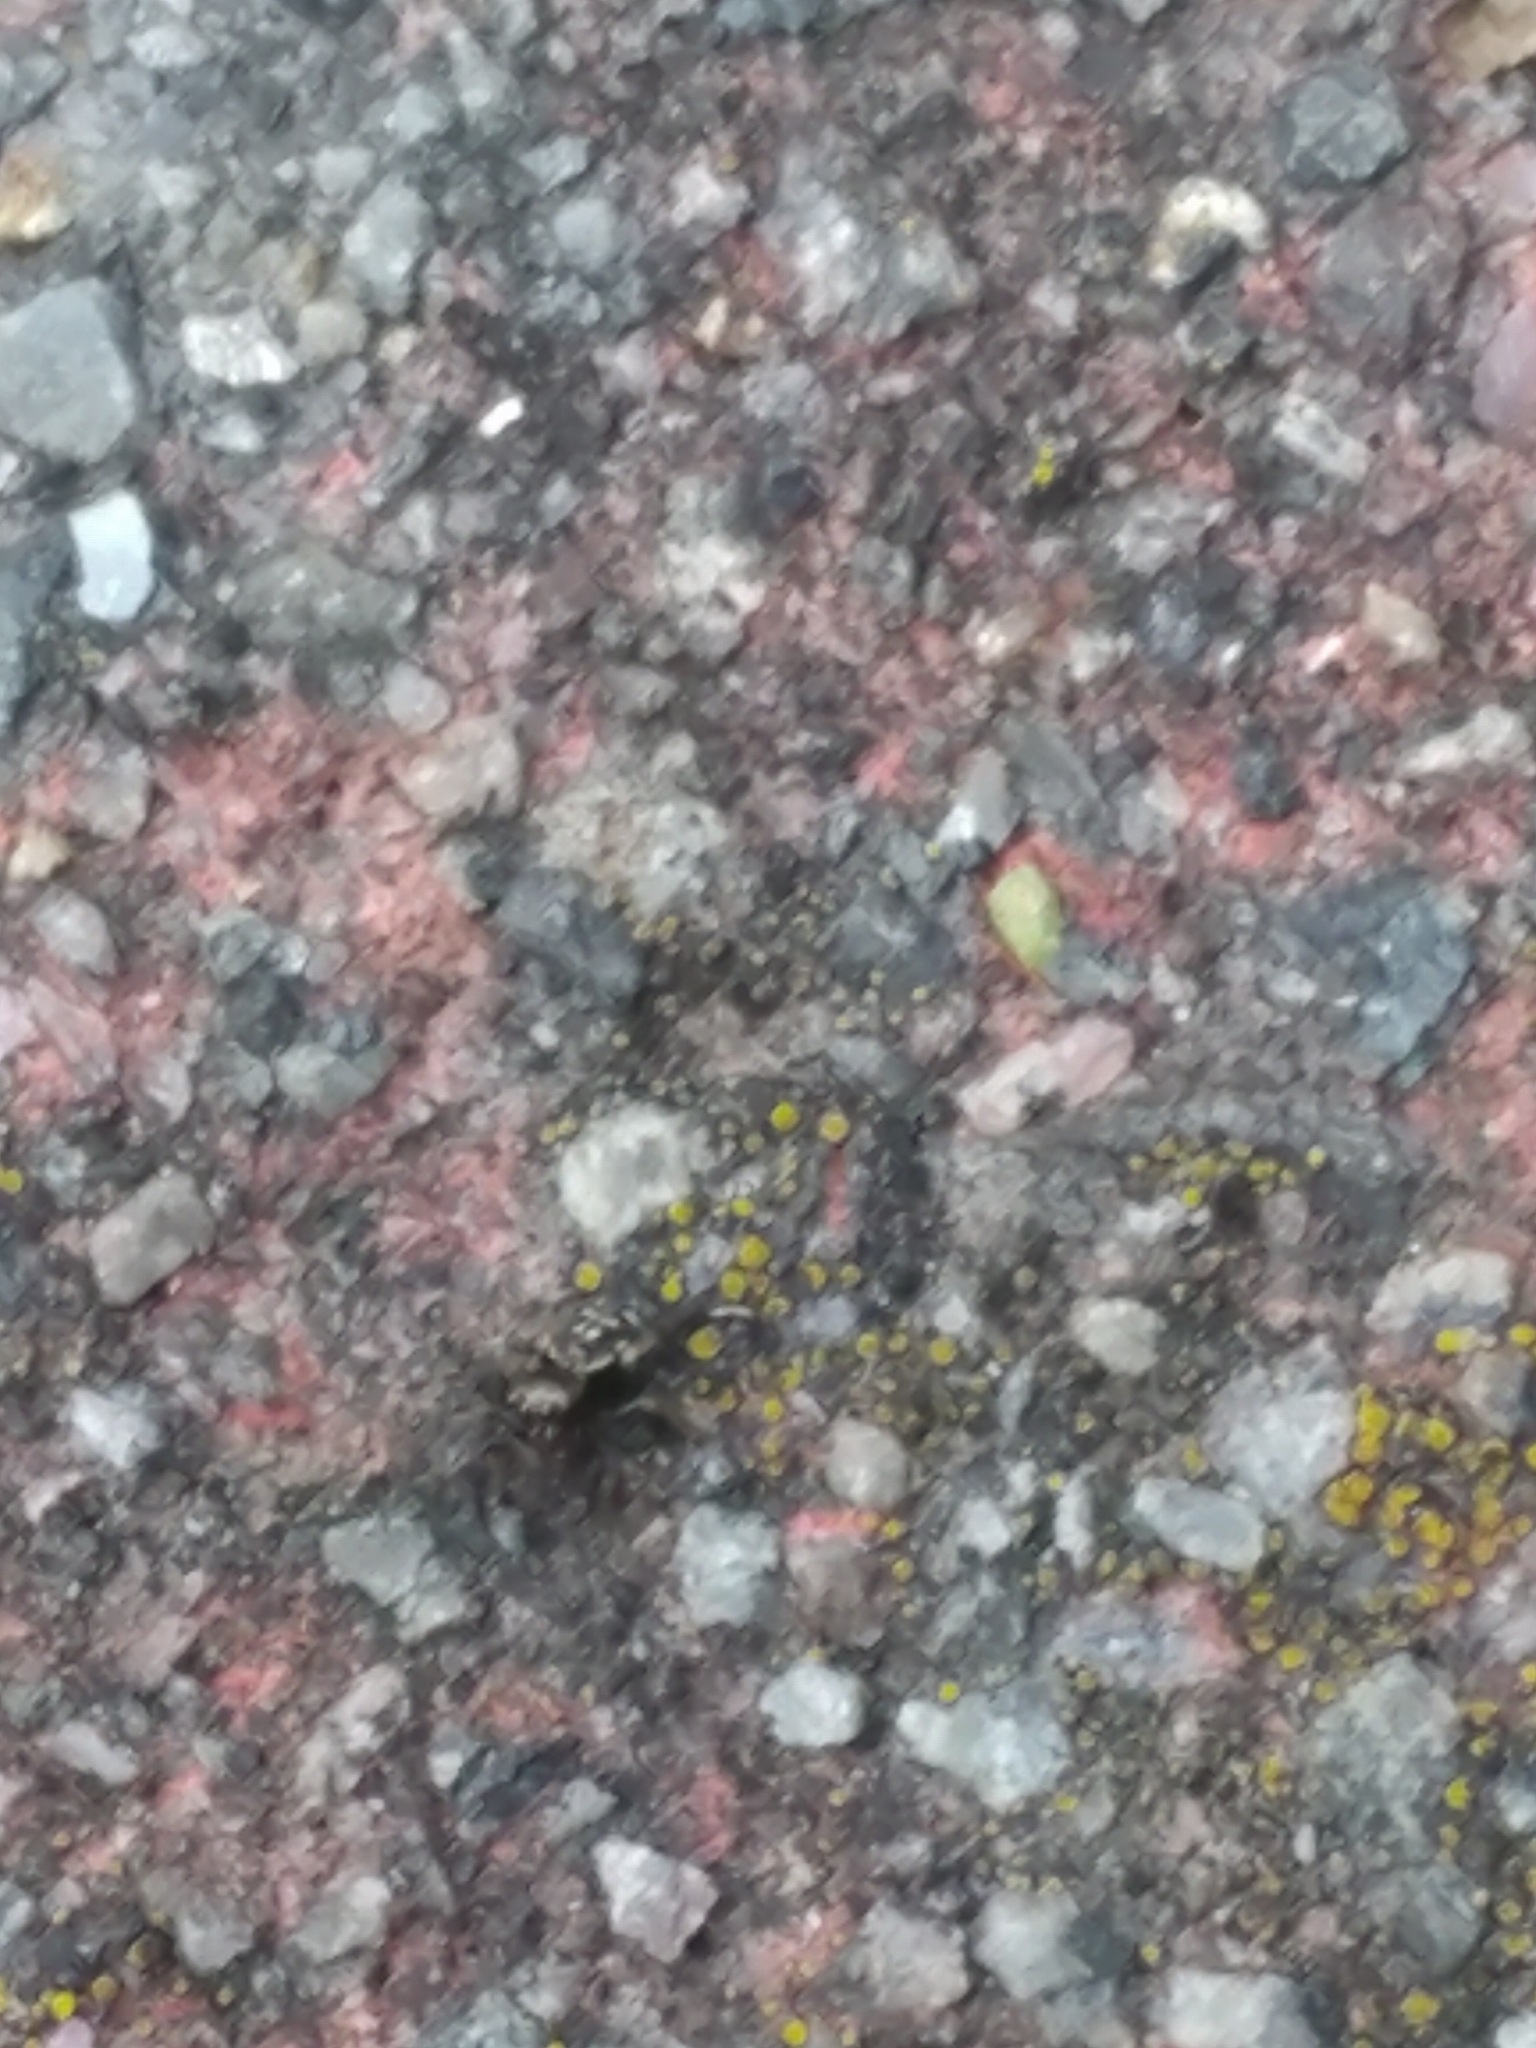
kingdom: Animalia
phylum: Arthropoda
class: Arachnida
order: Araneae
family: Salticidae
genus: Paraphidippus
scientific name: Paraphidippus aurantius
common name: Jumping spiders
